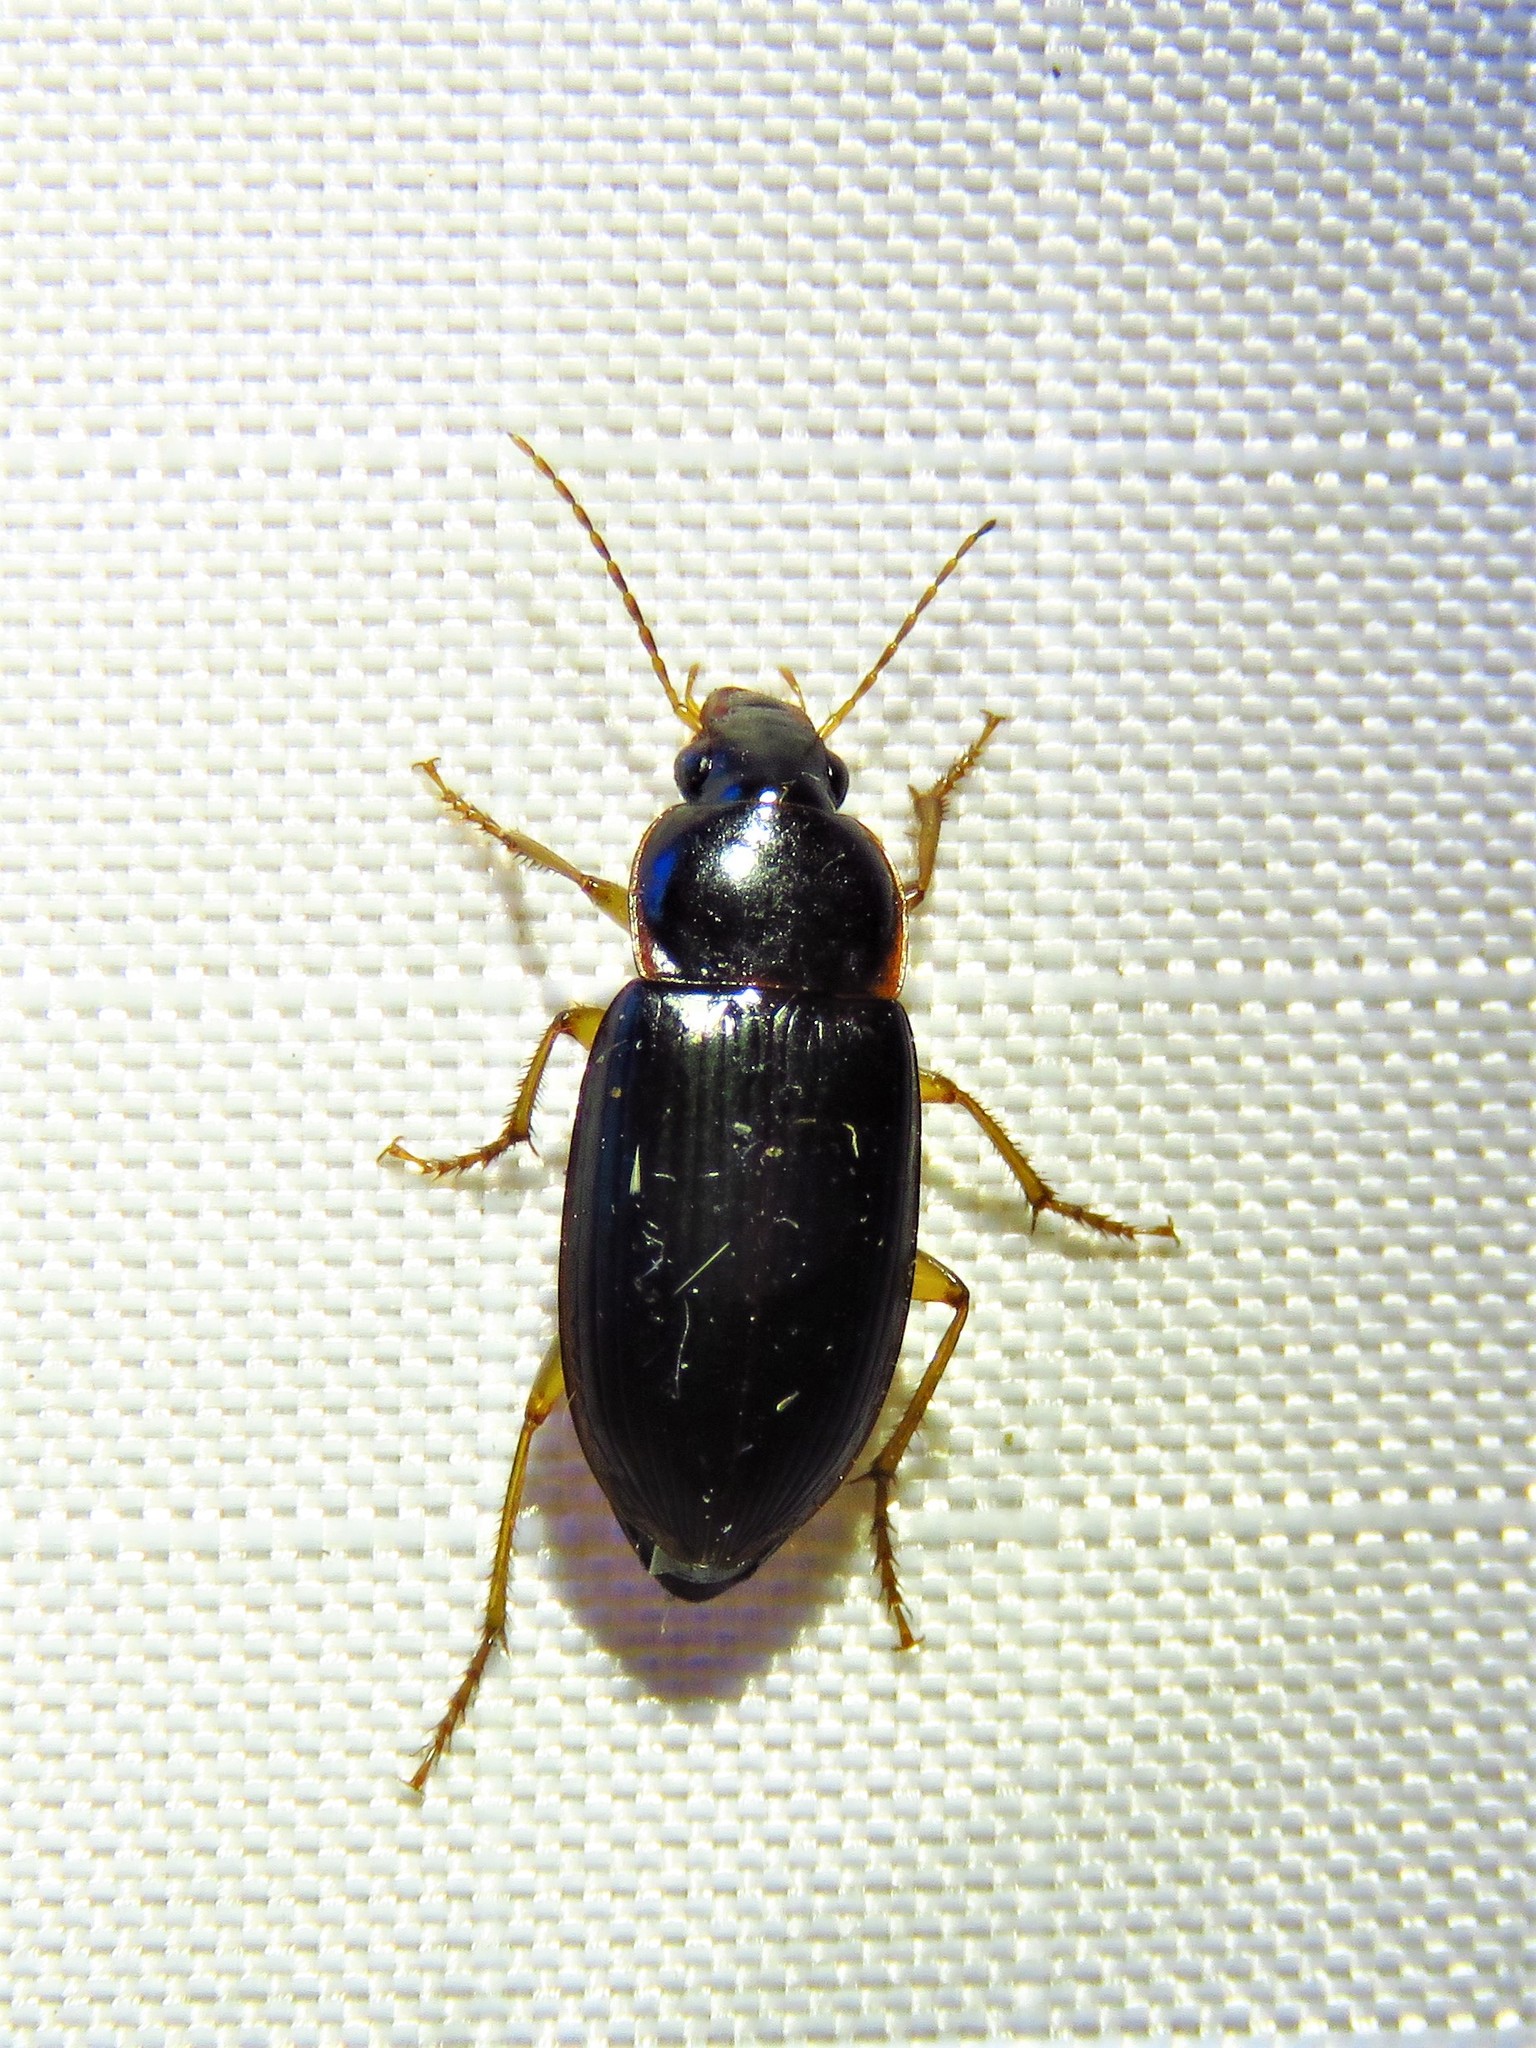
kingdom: Animalia
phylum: Arthropoda
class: Insecta
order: Coleoptera
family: Carabidae
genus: Notiobia
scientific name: Notiobia terminata
